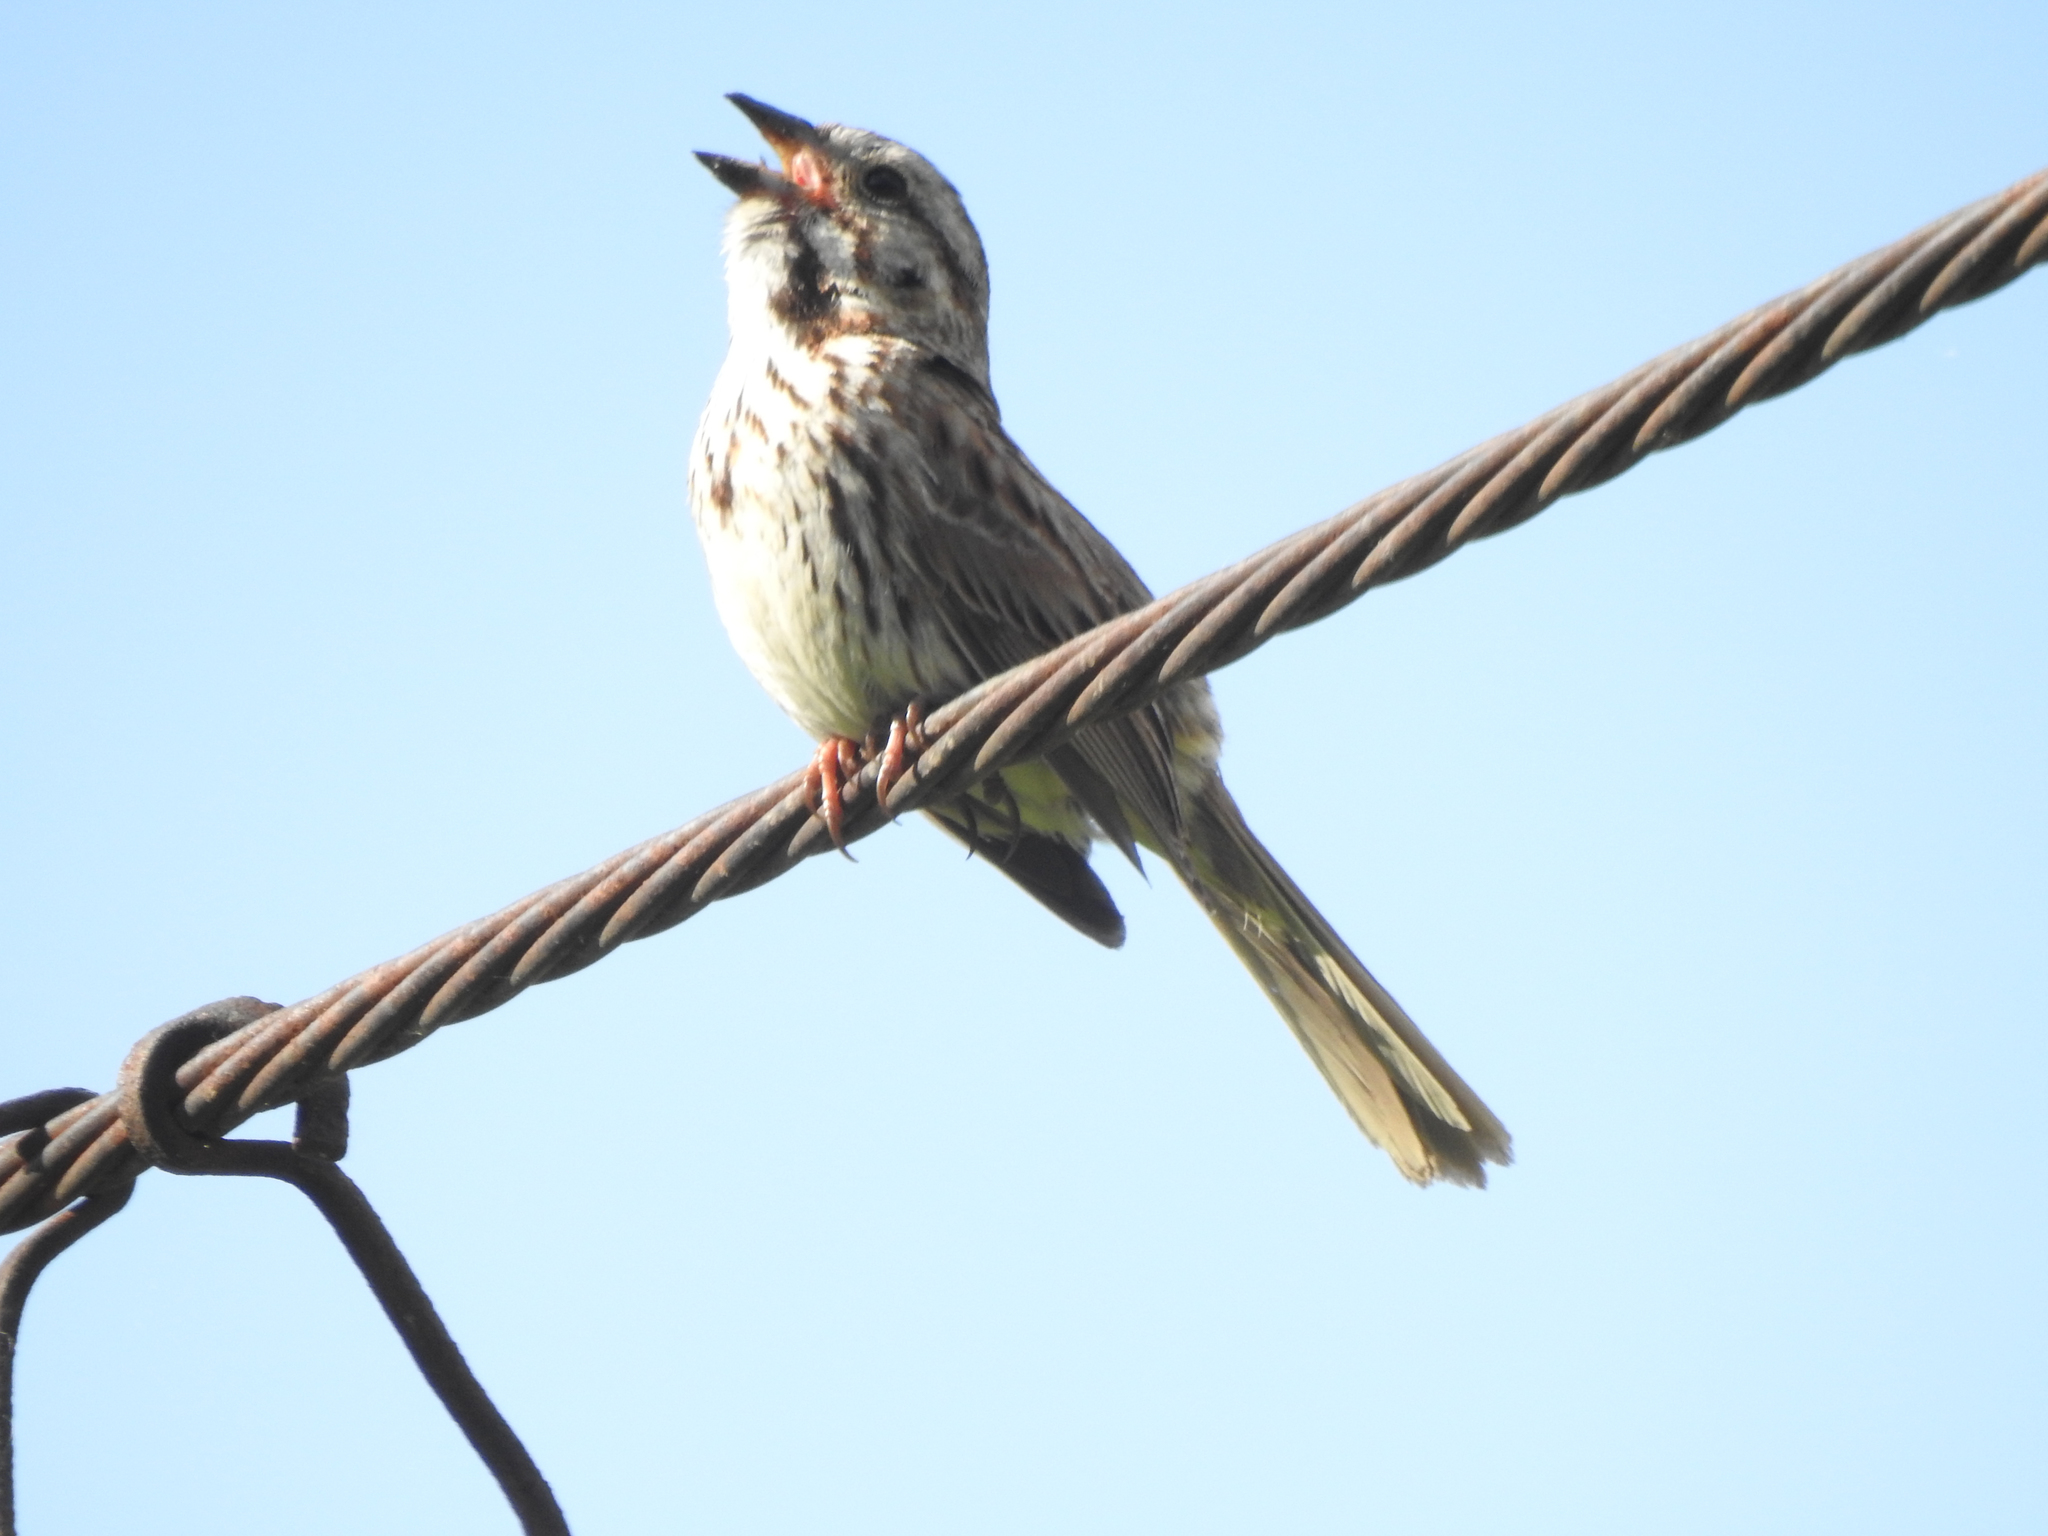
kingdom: Animalia
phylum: Chordata
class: Aves
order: Passeriformes
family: Passerellidae
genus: Melospiza
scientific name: Melospiza melodia
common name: Song sparrow
